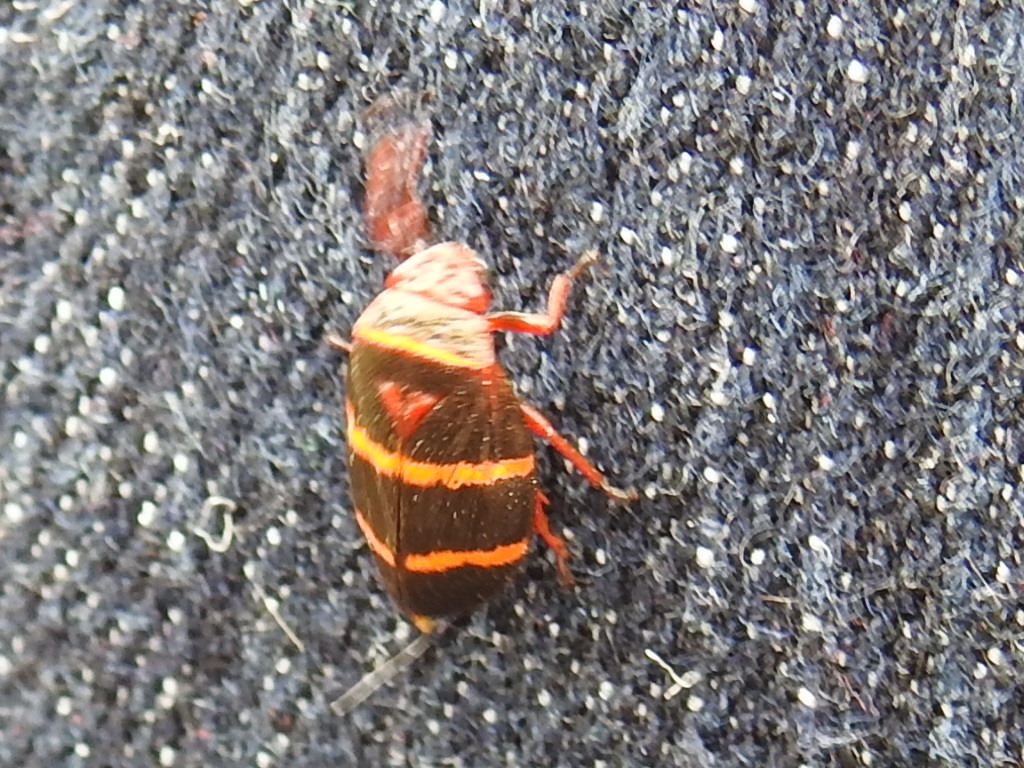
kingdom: Animalia
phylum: Arthropoda
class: Insecta
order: Hemiptera
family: Cercopidae
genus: Prosapia
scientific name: Prosapia bicincta
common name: Twolined spittlebug
